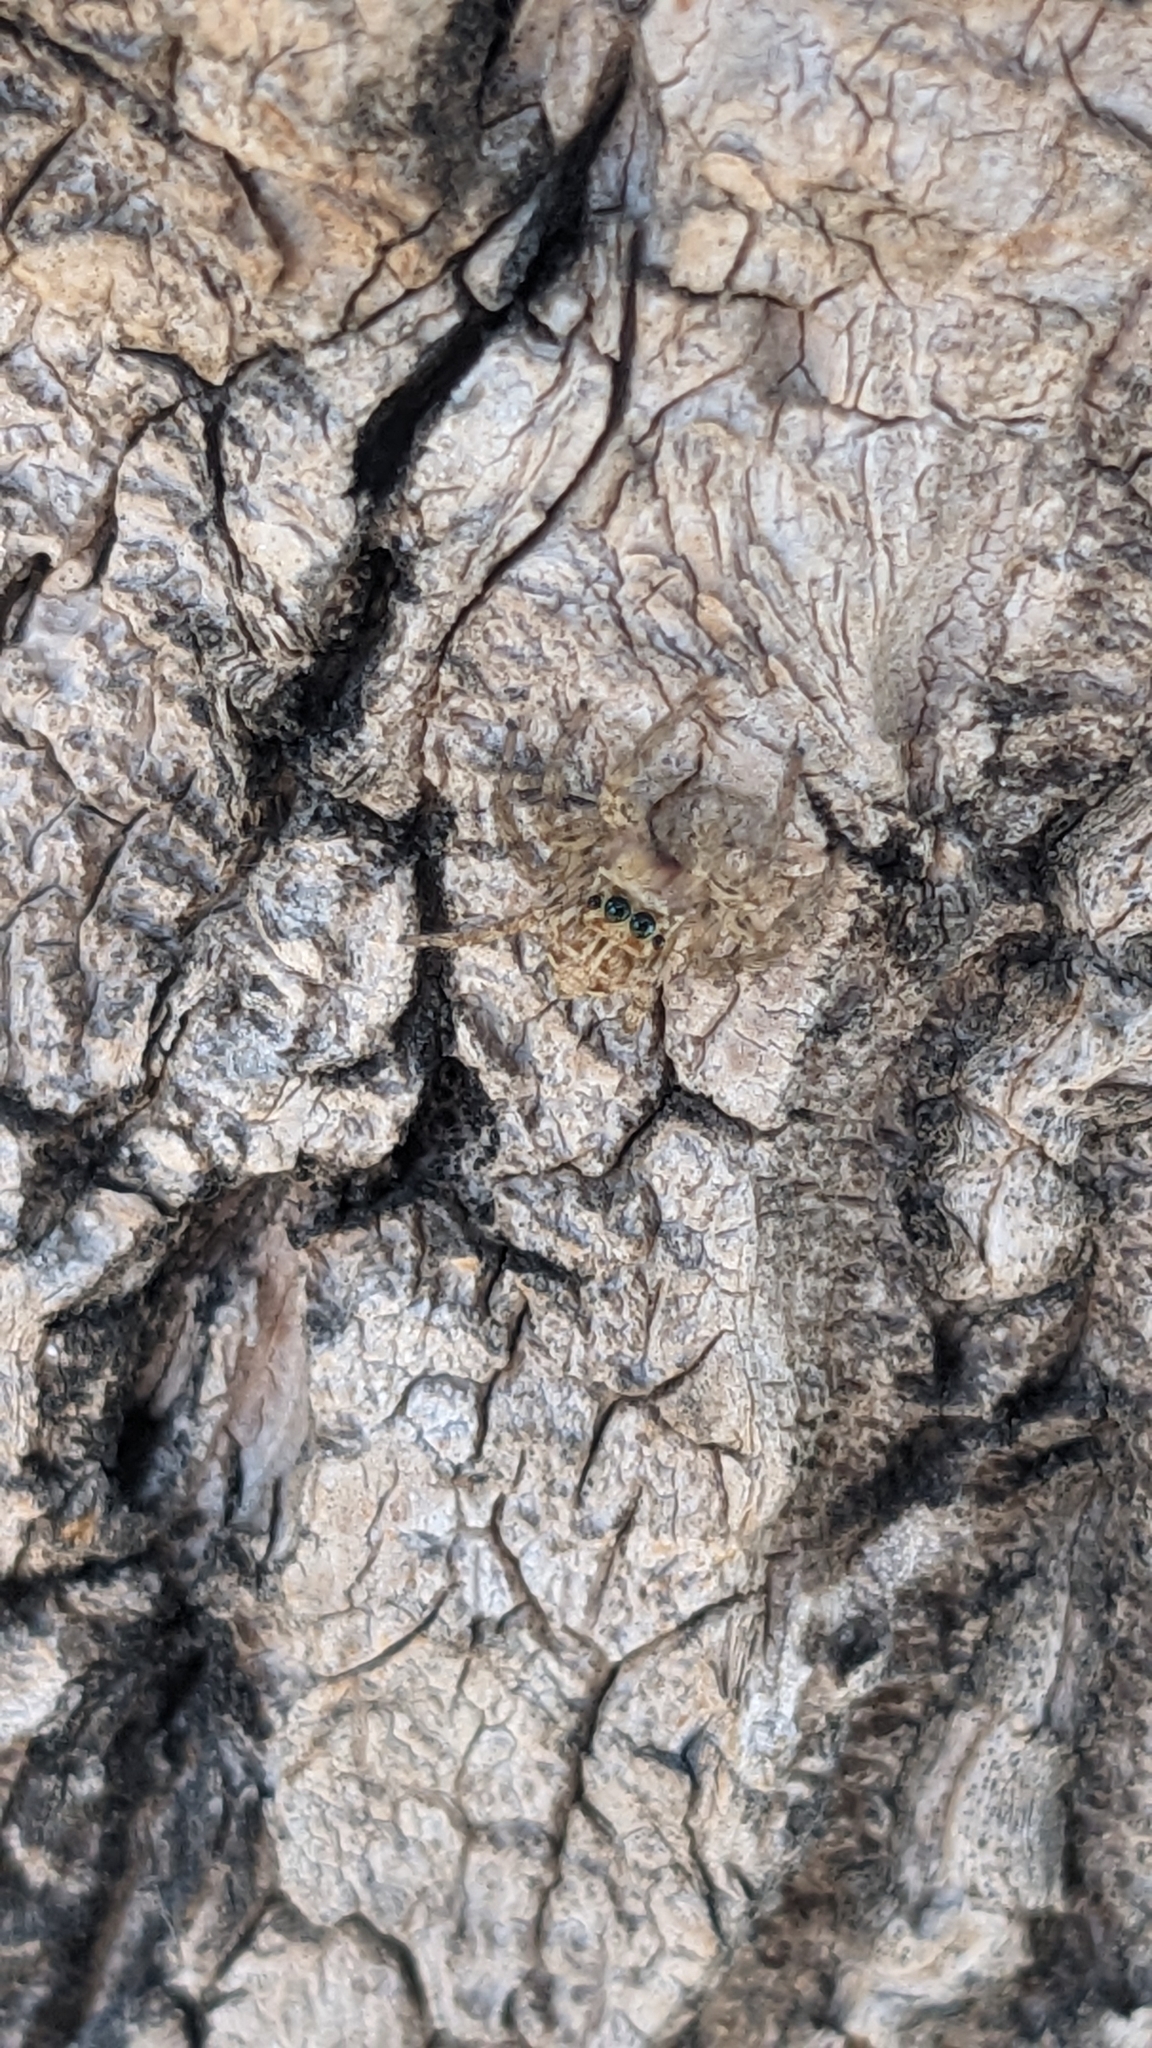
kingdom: Animalia
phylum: Arthropoda
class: Arachnida
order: Araneae
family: Salticidae
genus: Plexippus
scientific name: Plexippus paykulli
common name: Pantropical jumper
